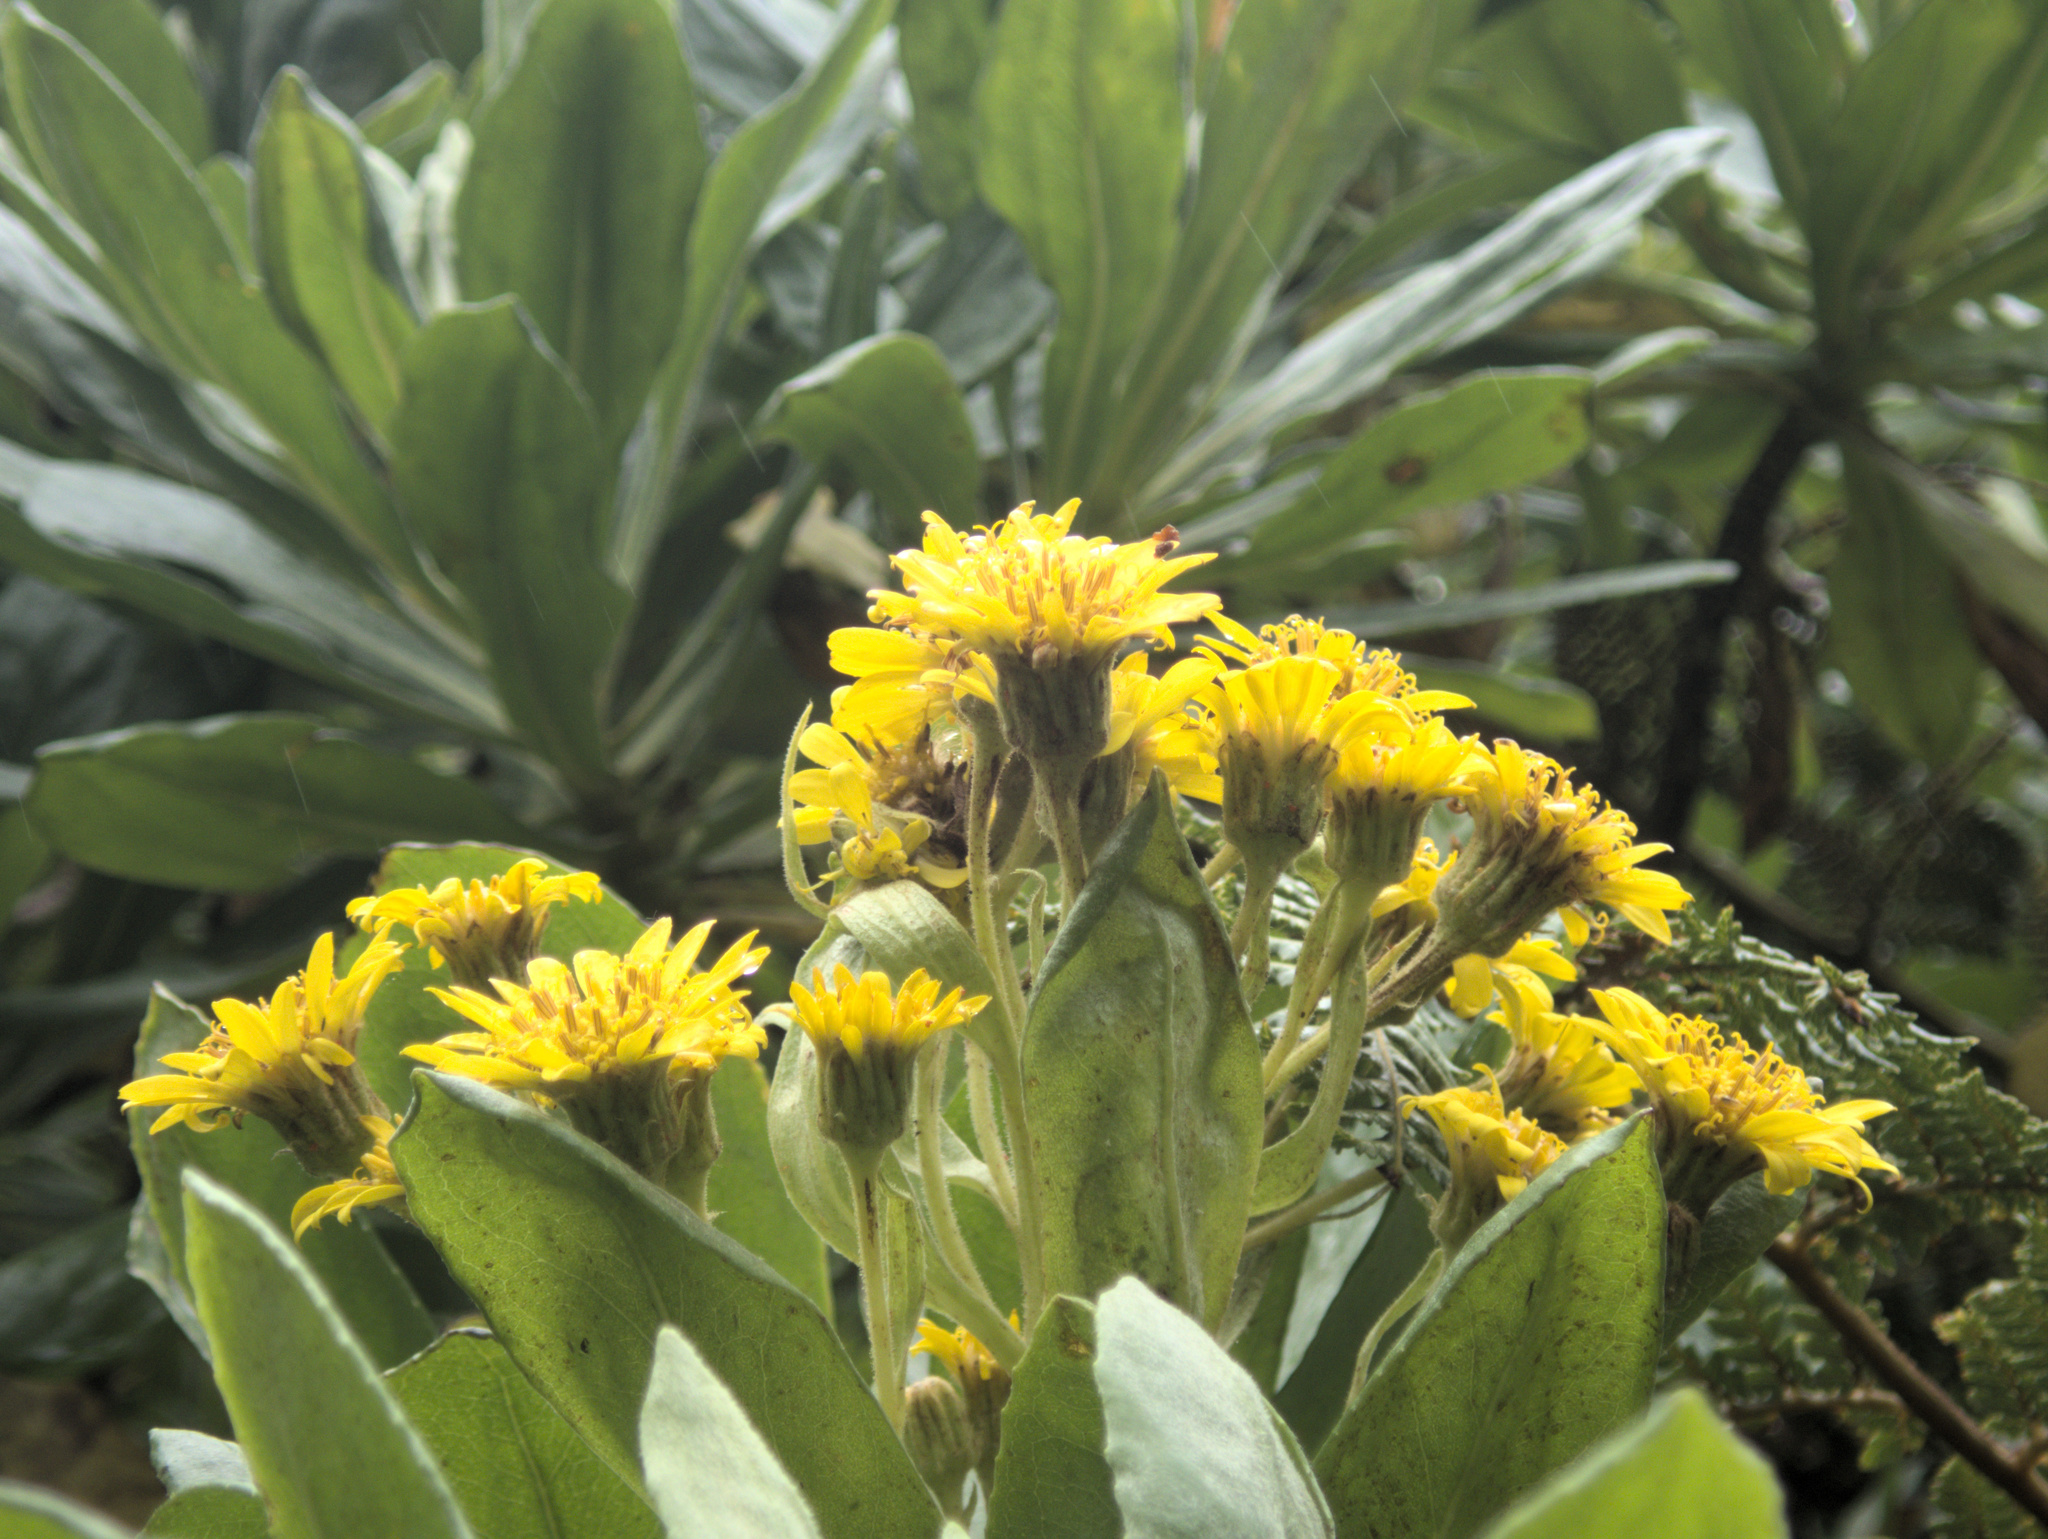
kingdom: Plantae
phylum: Tracheophyta
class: Magnoliopsida
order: Asterales
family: Asteraceae
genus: Brachyglottis
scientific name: Brachyglottis huntii
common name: Chatham island christmas tree
